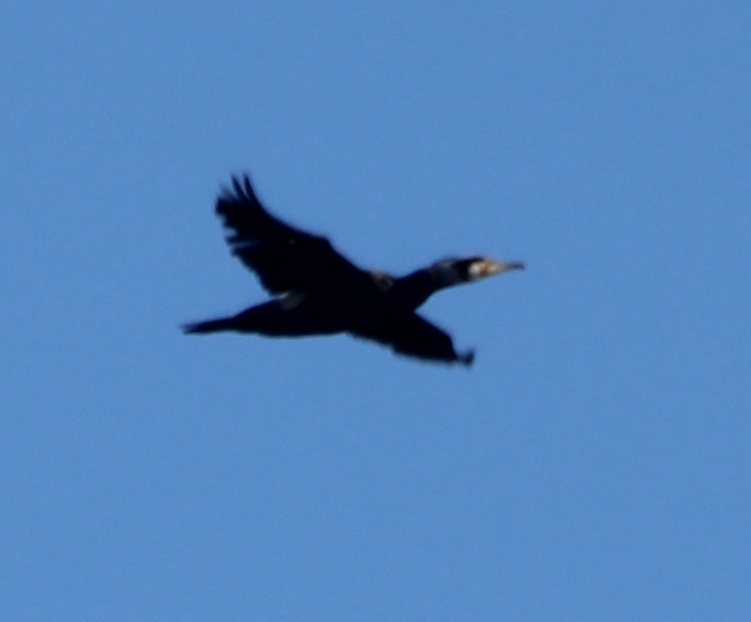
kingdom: Animalia
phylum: Chordata
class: Aves
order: Suliformes
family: Phalacrocoracidae
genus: Phalacrocorax
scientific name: Phalacrocorax carbo
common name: Great cormorant
